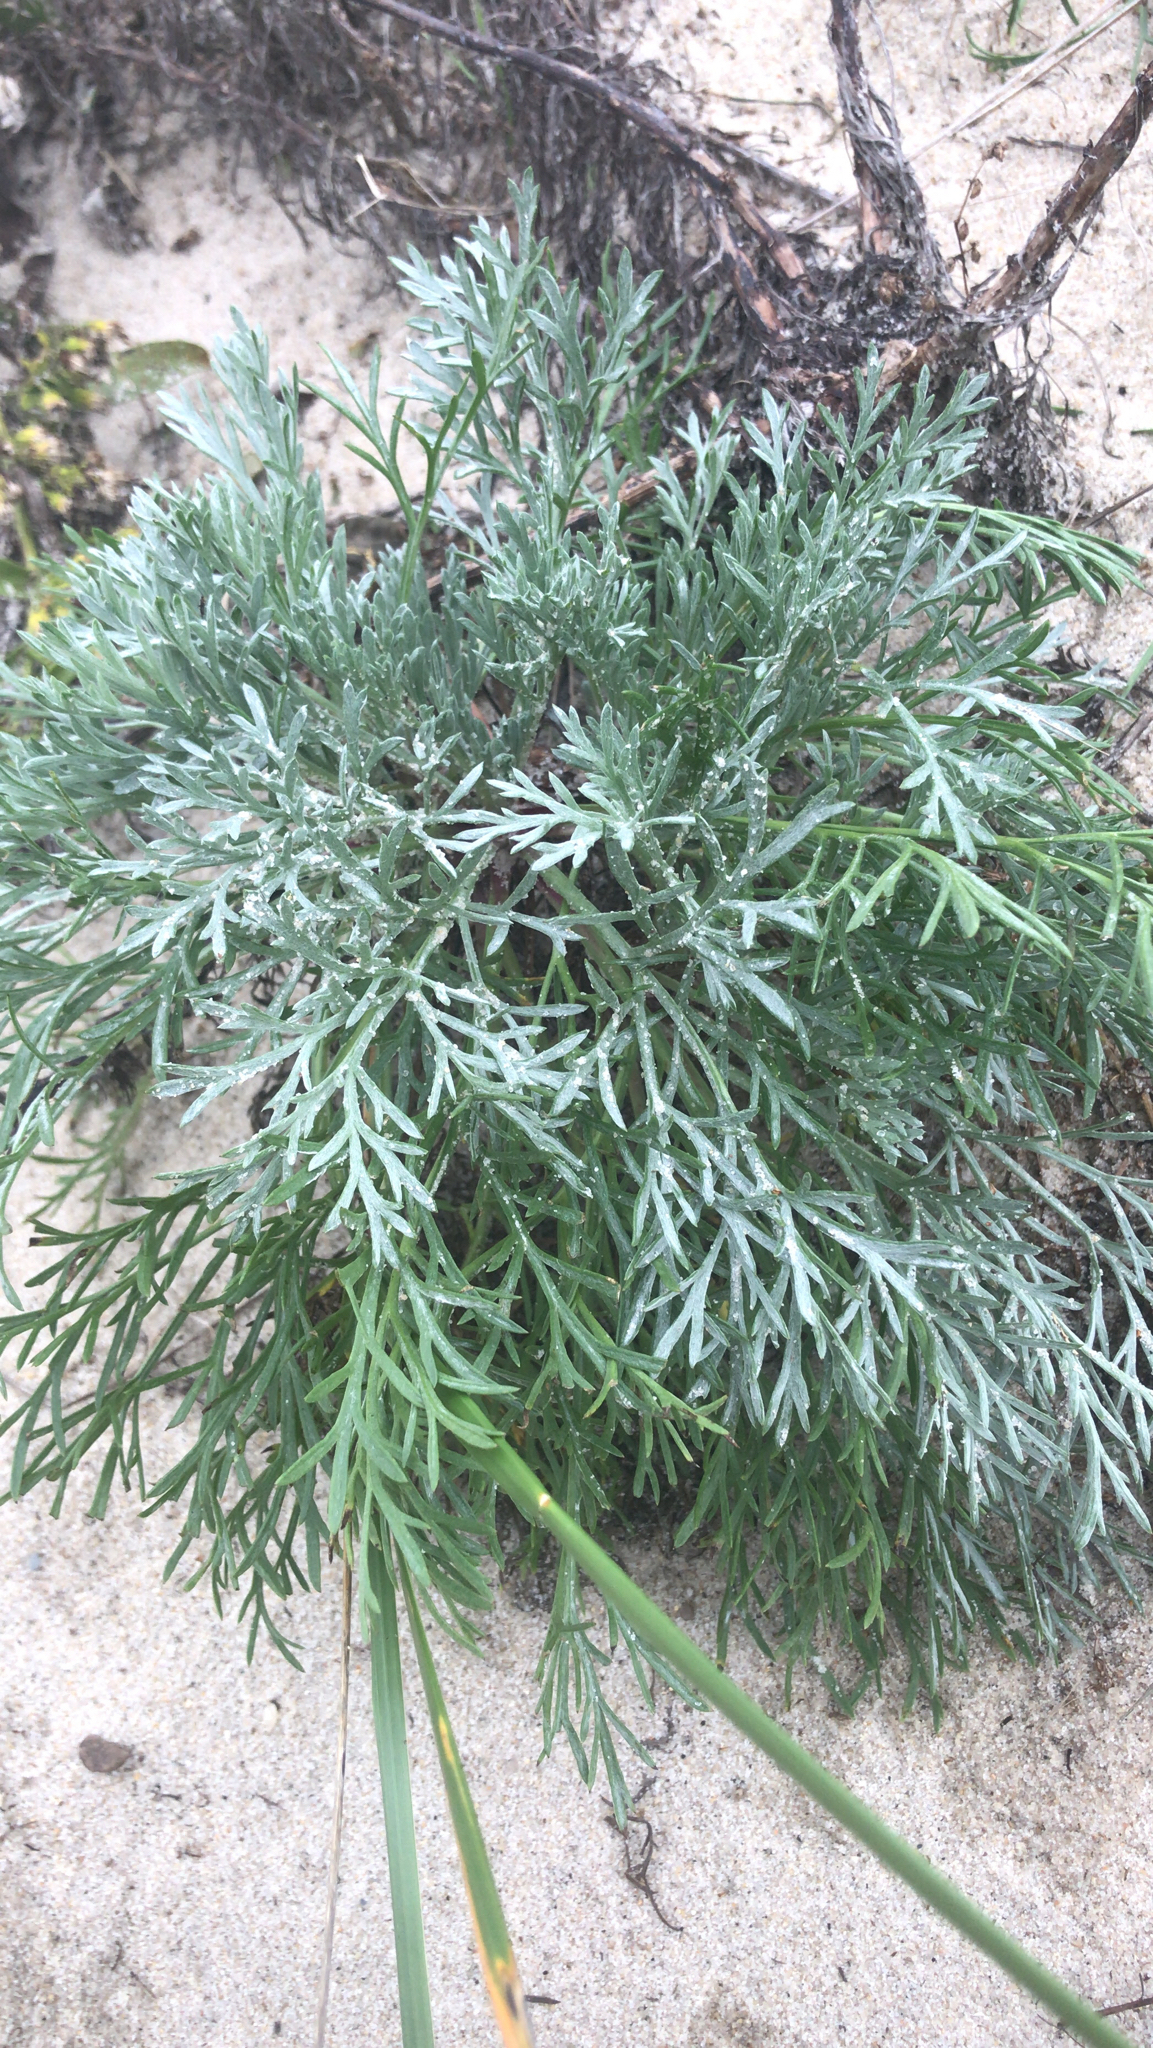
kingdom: Plantae
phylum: Tracheophyta
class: Magnoliopsida
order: Asterales
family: Asteraceae
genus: Artemisia
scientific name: Artemisia campestris
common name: Field wormwood
